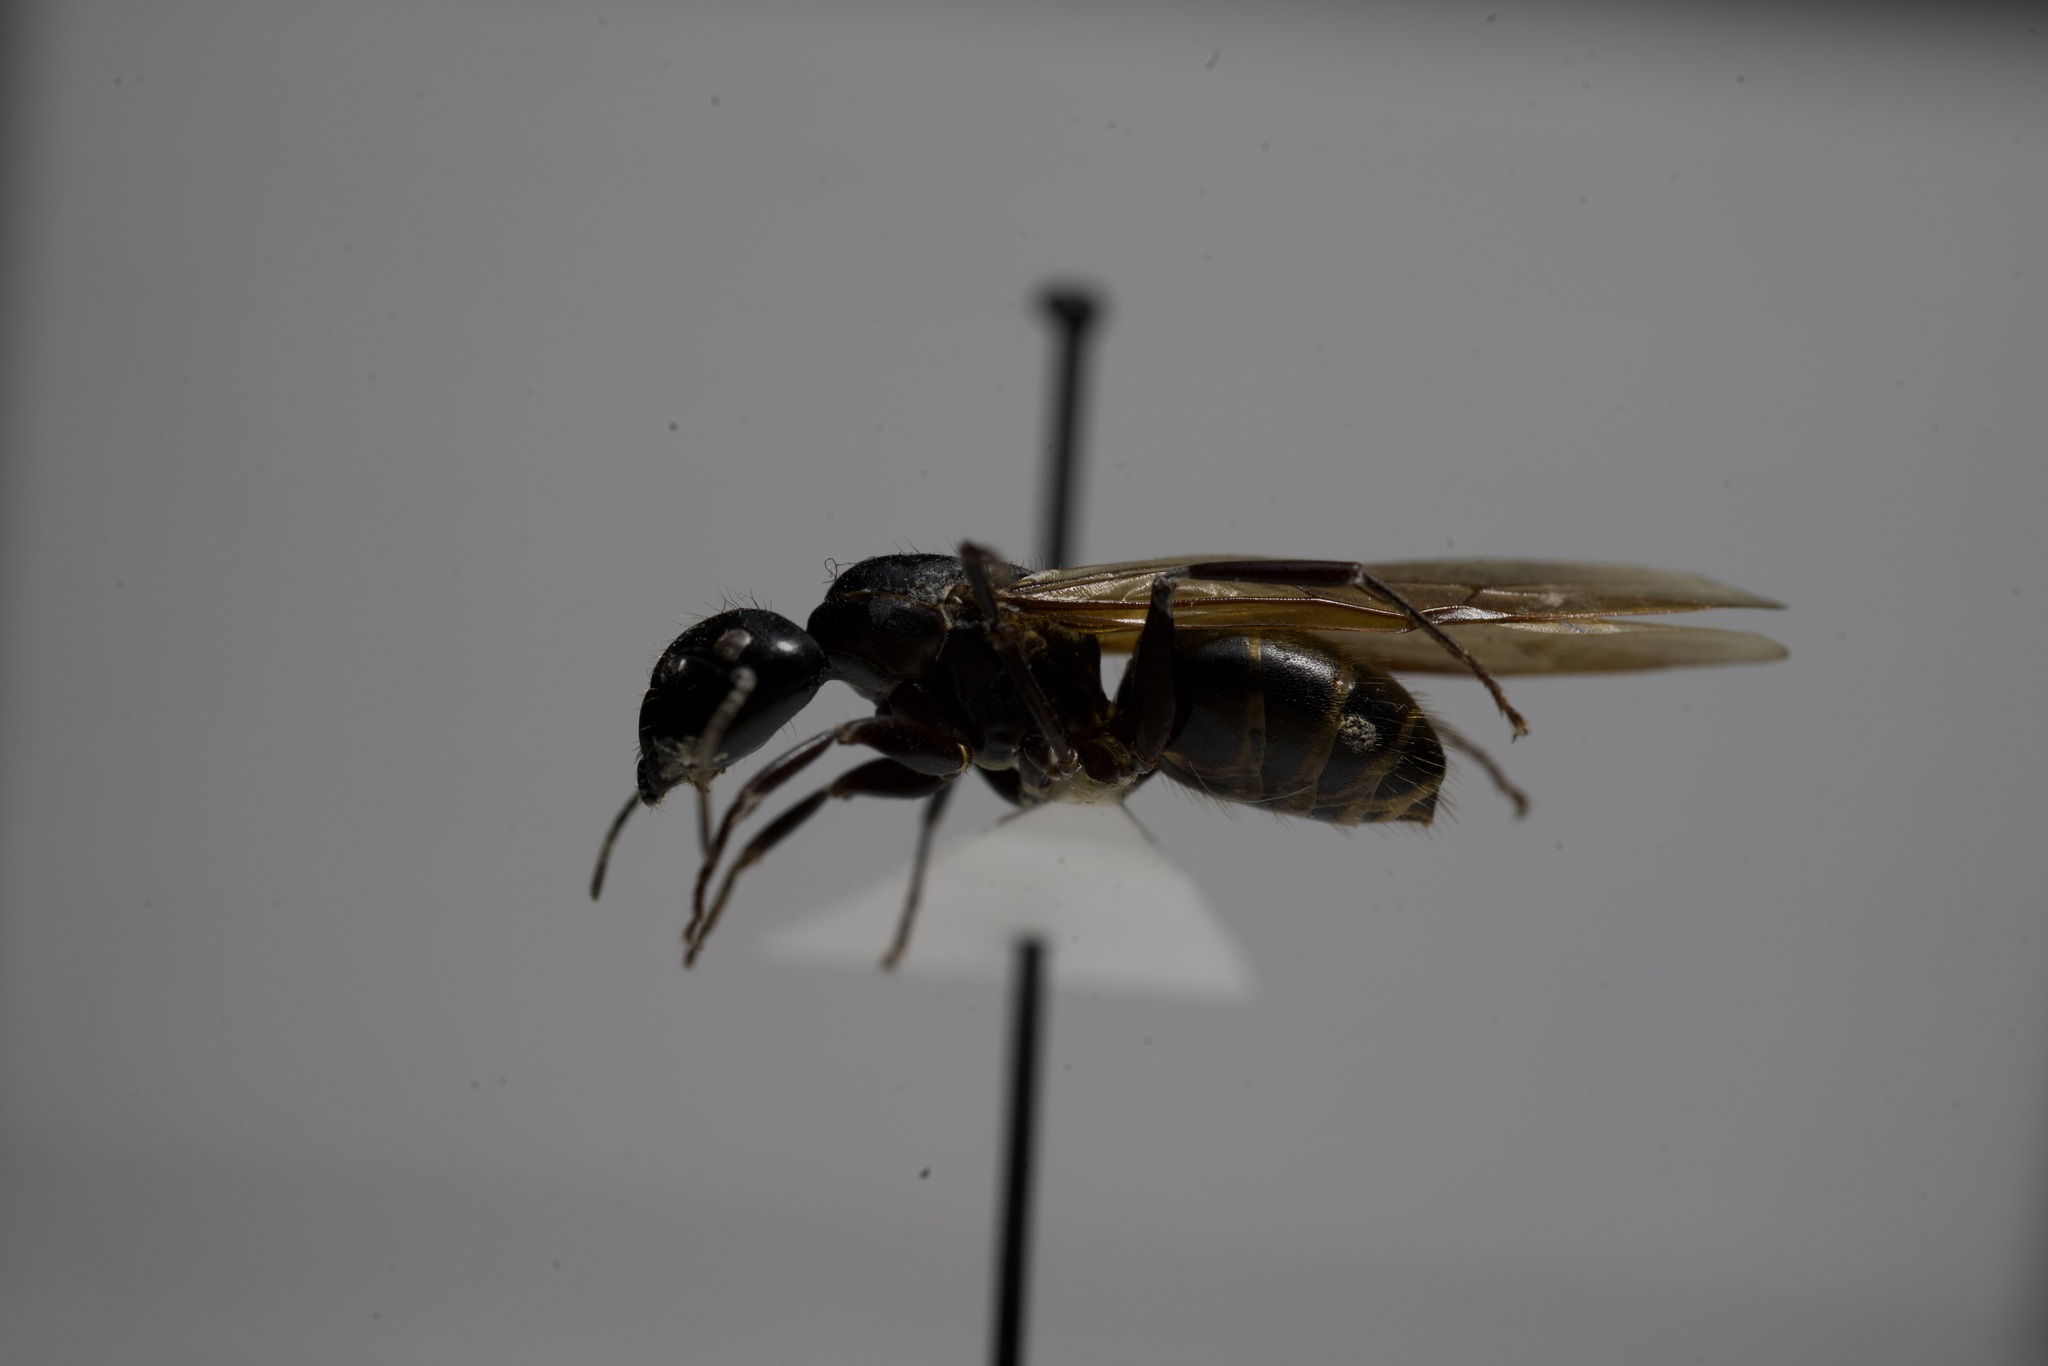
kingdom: Animalia
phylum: Arthropoda
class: Insecta
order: Hymenoptera
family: Formicidae
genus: Camponotus
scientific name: Camponotus pennsylvanicus
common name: Black carpenter ant
